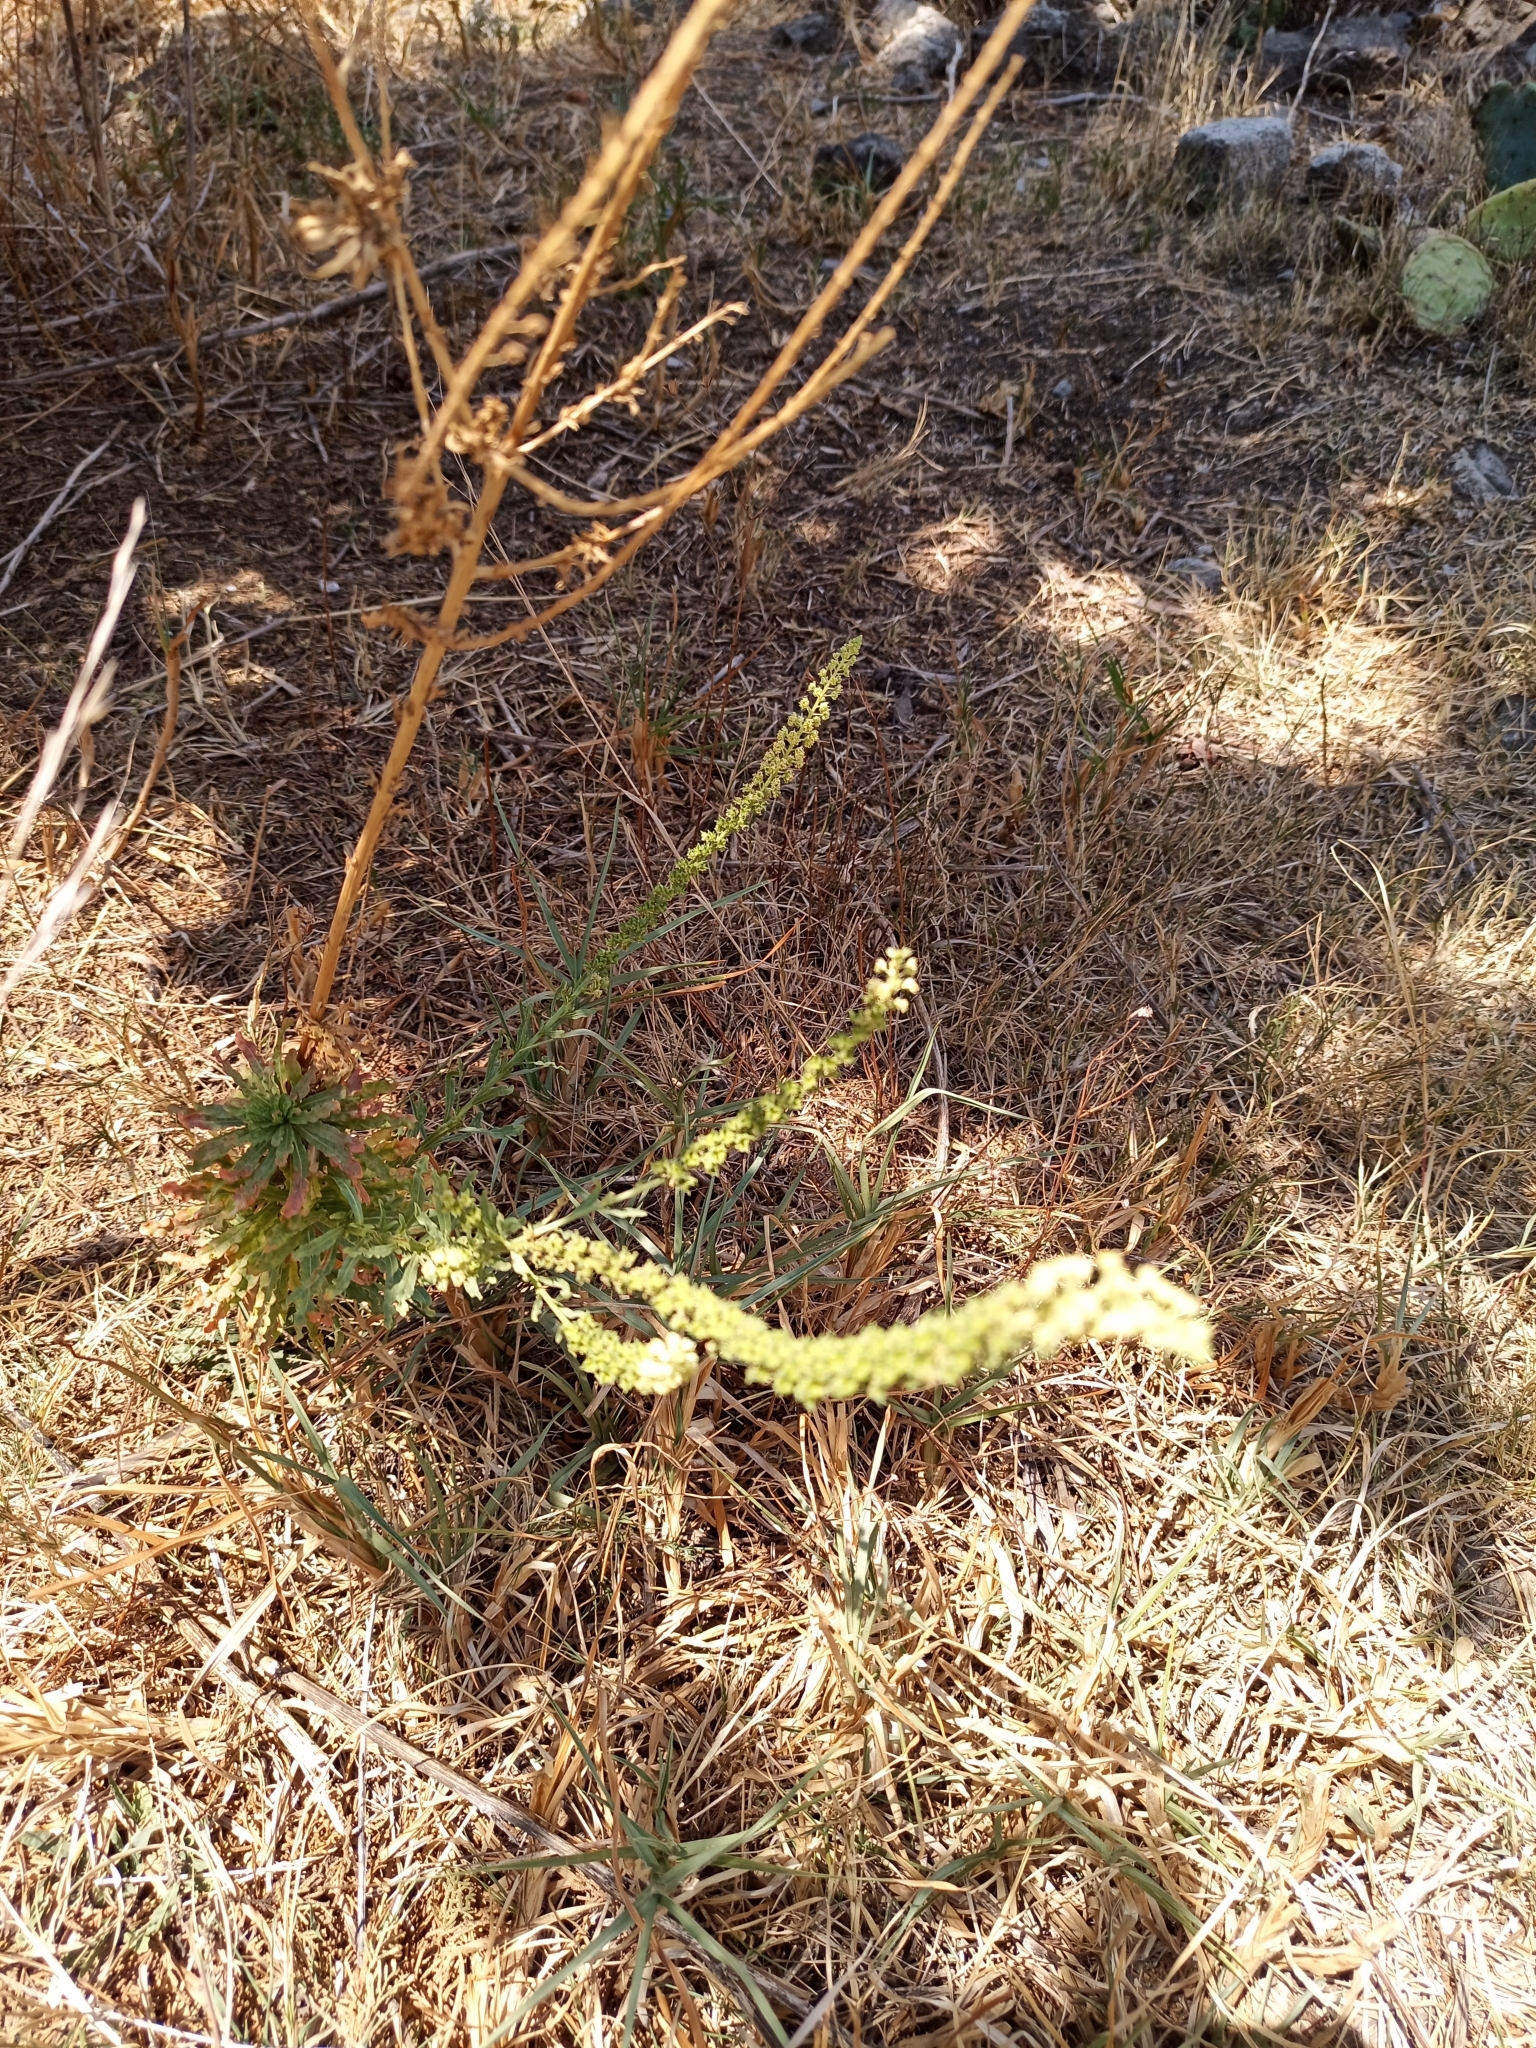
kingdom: Plantae
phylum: Tracheophyta
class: Magnoliopsida
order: Brassicales
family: Resedaceae
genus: Reseda
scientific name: Reseda luteola
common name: Weld
